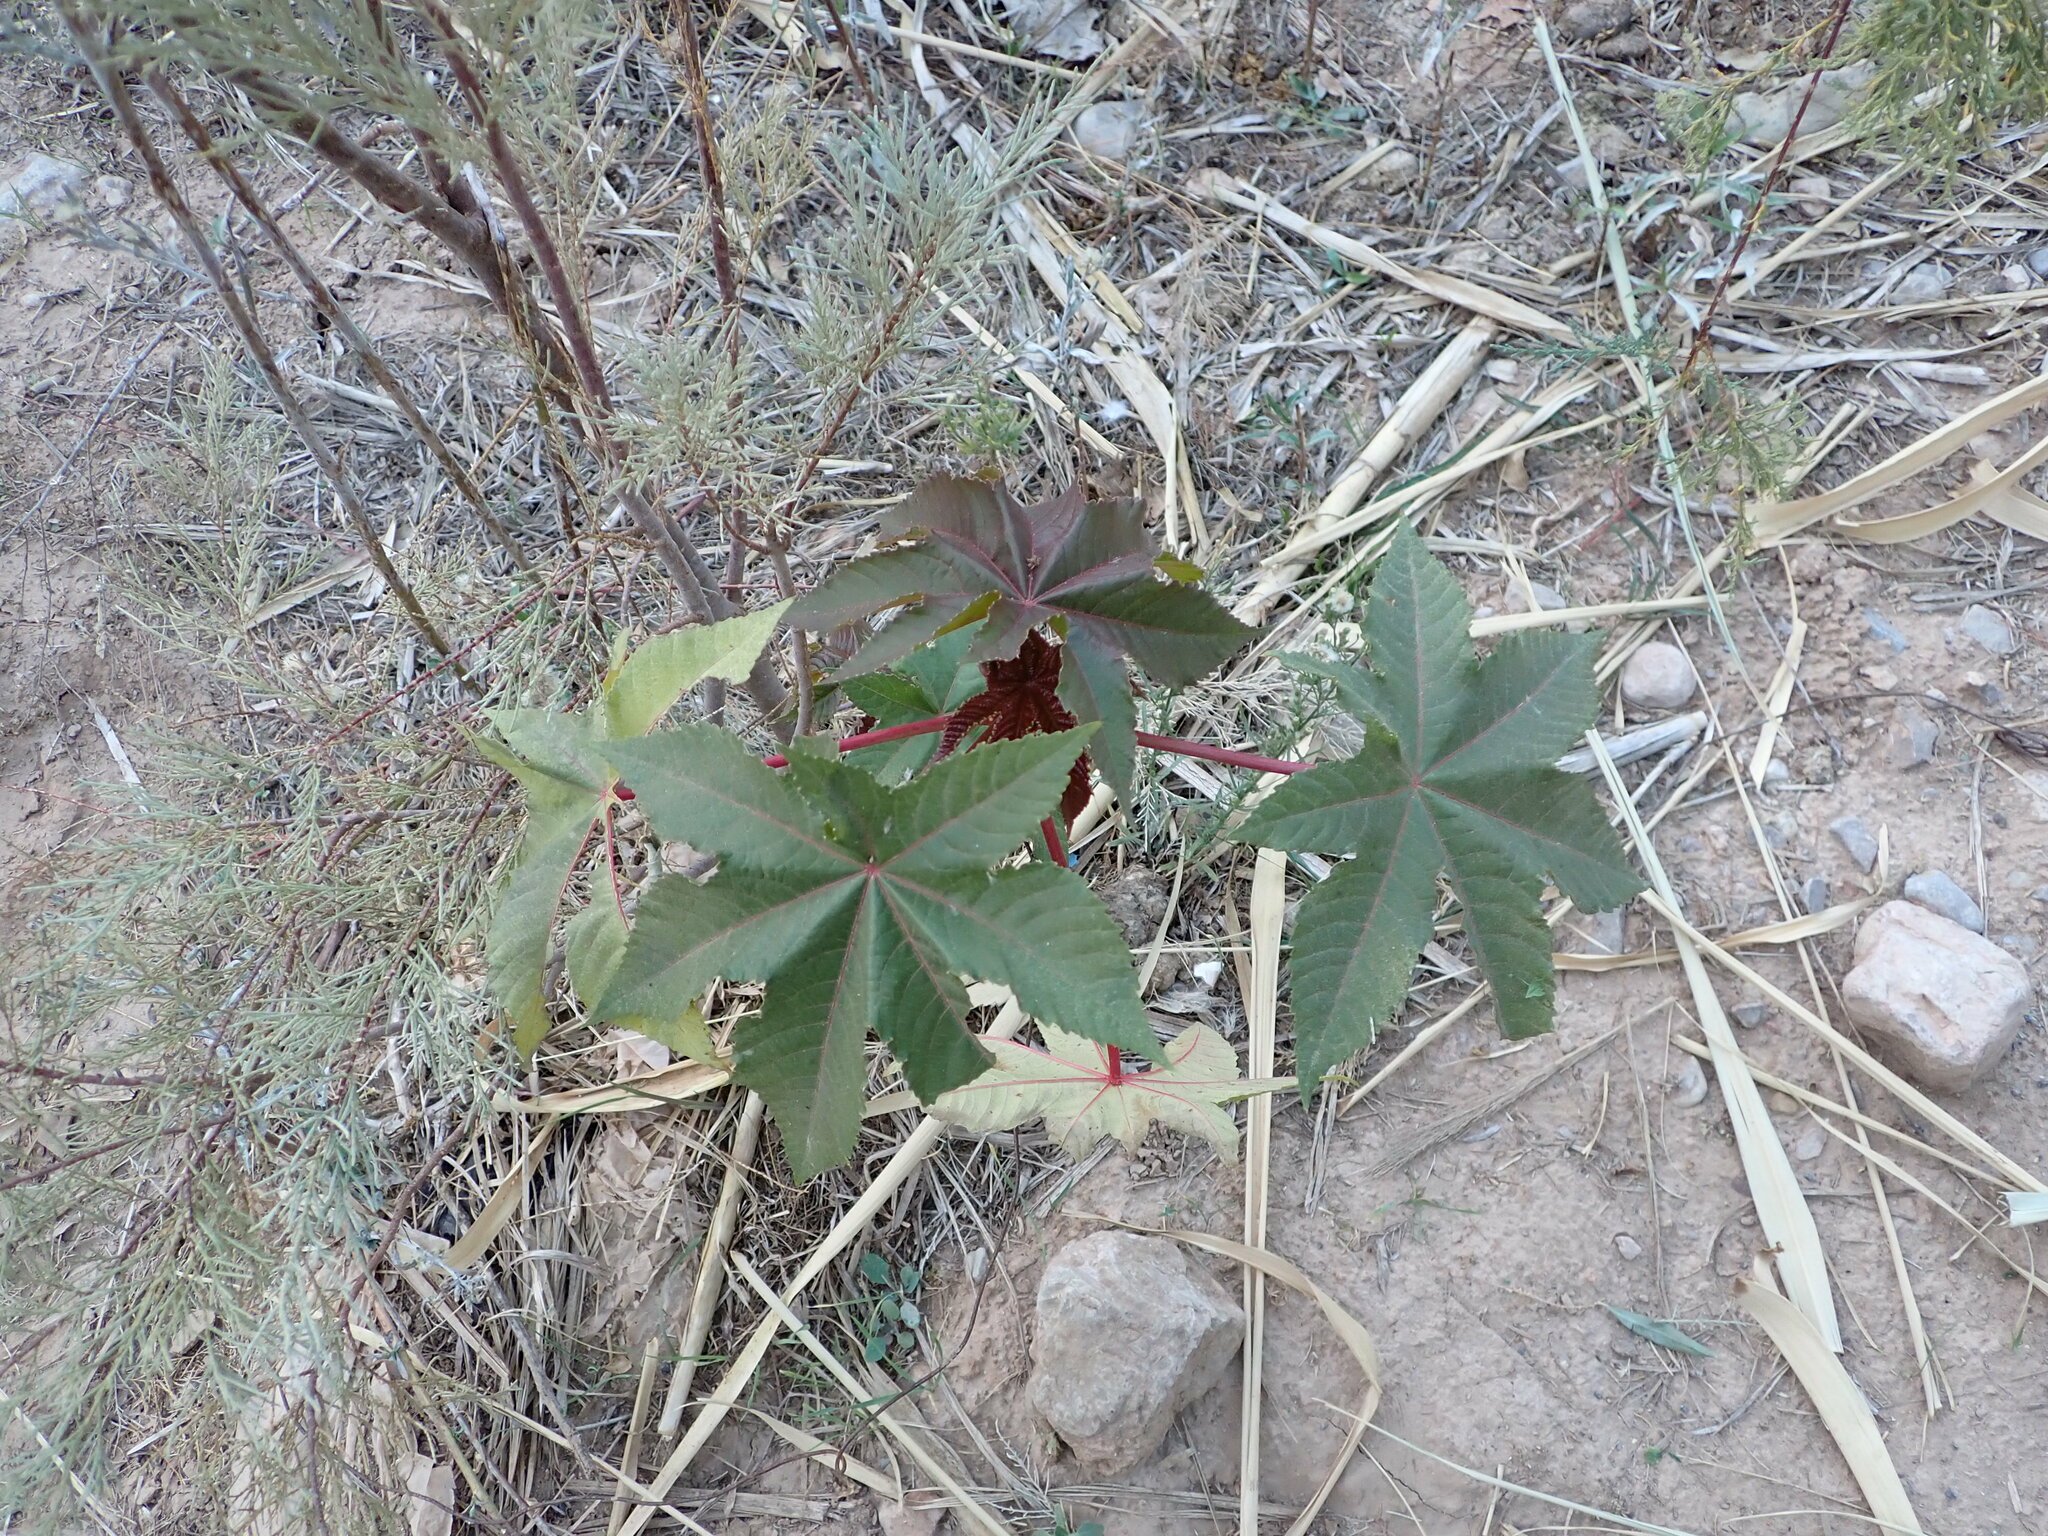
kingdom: Plantae
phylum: Tracheophyta
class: Magnoliopsida
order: Malpighiales
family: Euphorbiaceae
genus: Ricinus
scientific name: Ricinus communis
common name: Castor-oil-plant
